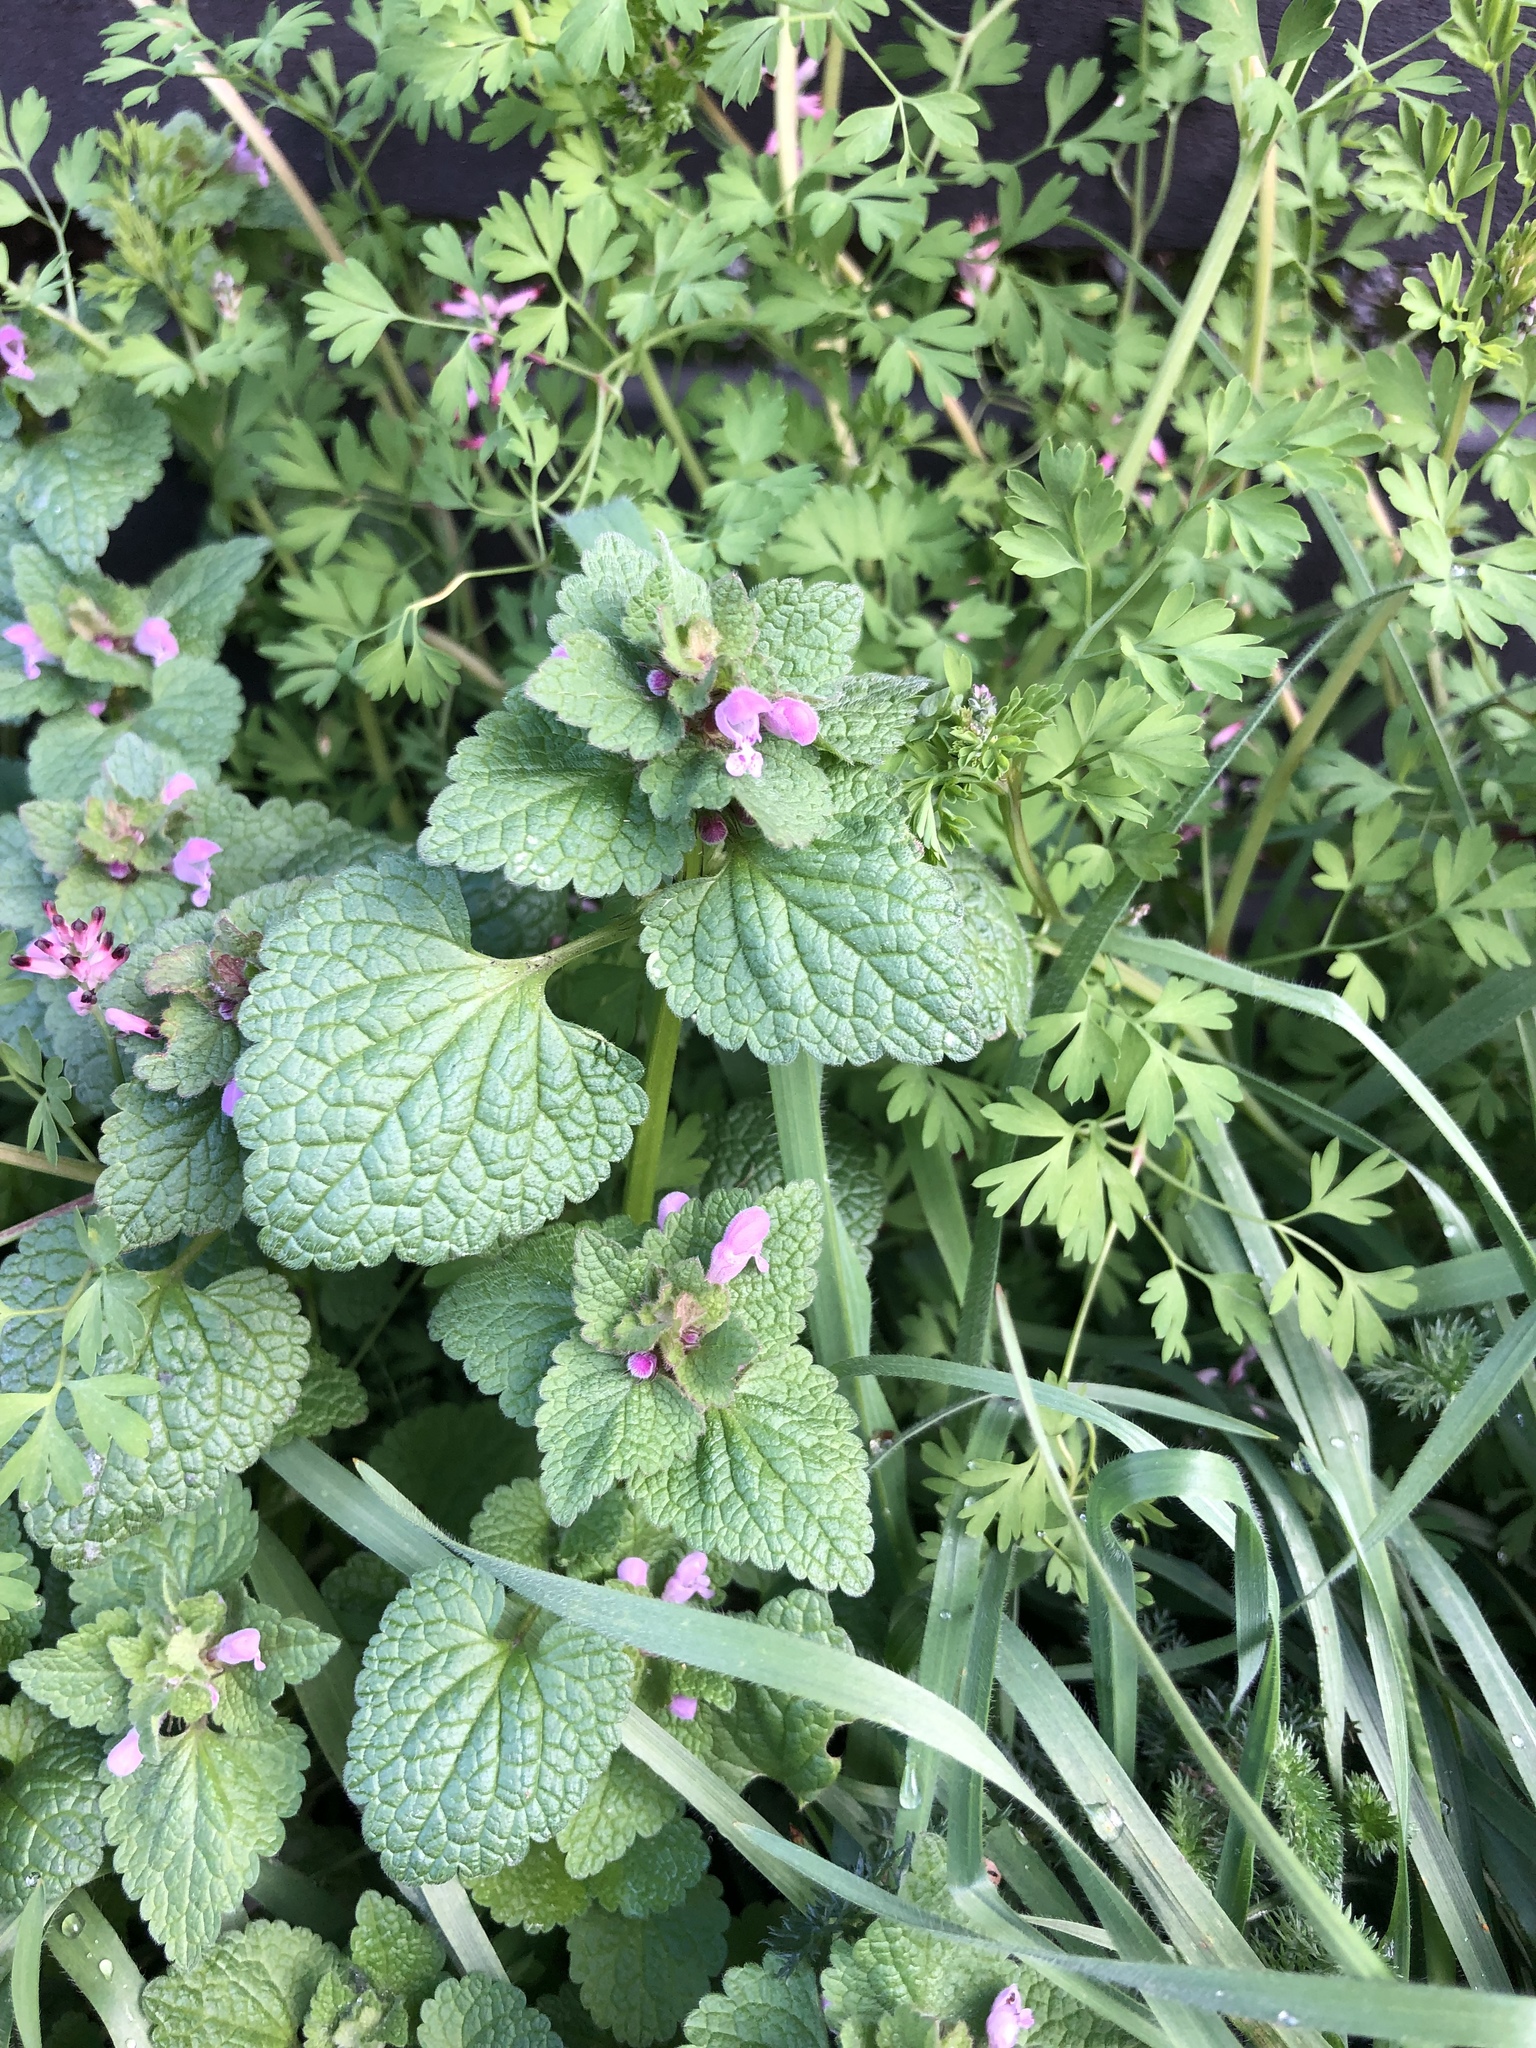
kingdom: Plantae
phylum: Tracheophyta
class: Magnoliopsida
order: Lamiales
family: Lamiaceae
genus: Lamium
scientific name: Lamium purpureum
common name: Red dead-nettle
